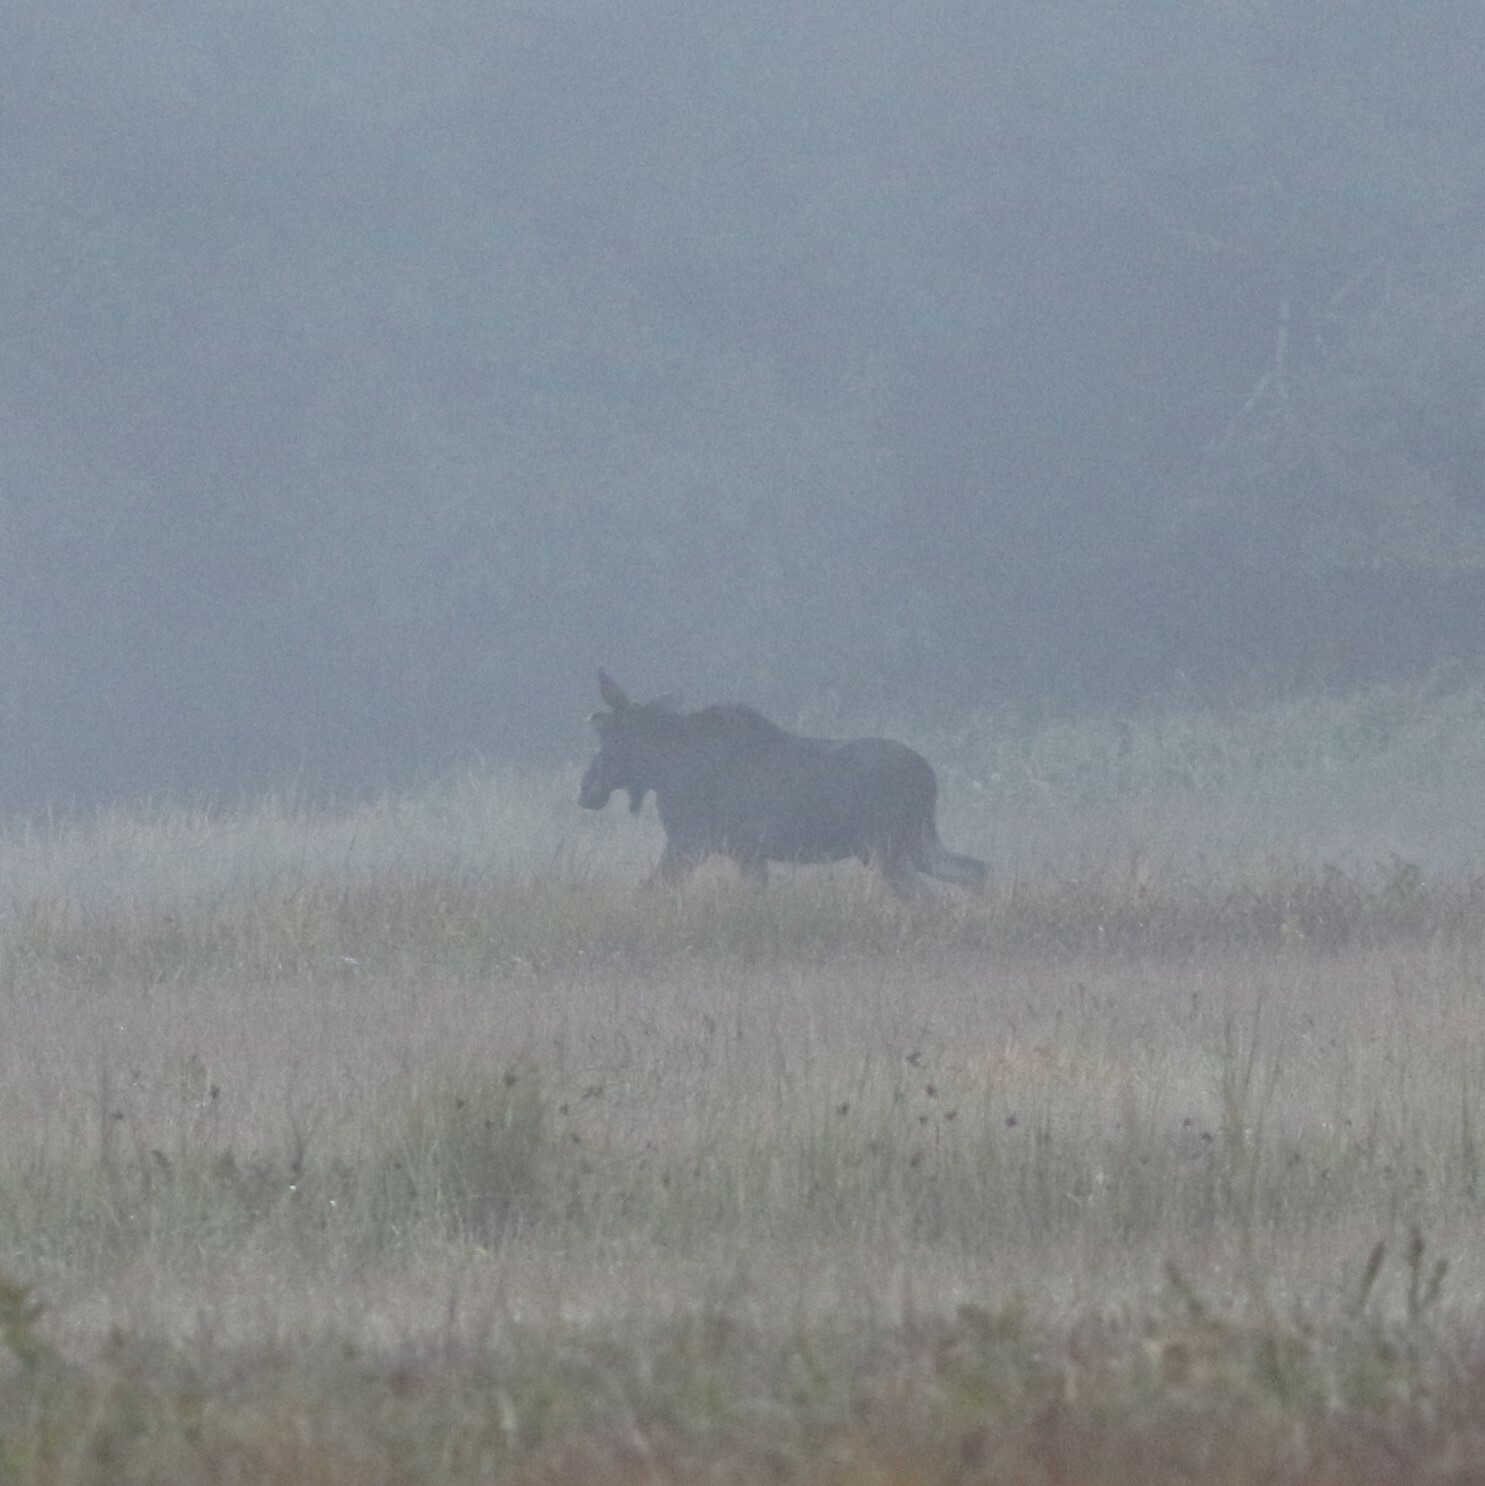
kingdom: Animalia
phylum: Chordata
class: Mammalia
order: Artiodactyla
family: Cervidae
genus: Alces
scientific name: Alces alces
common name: Moose
